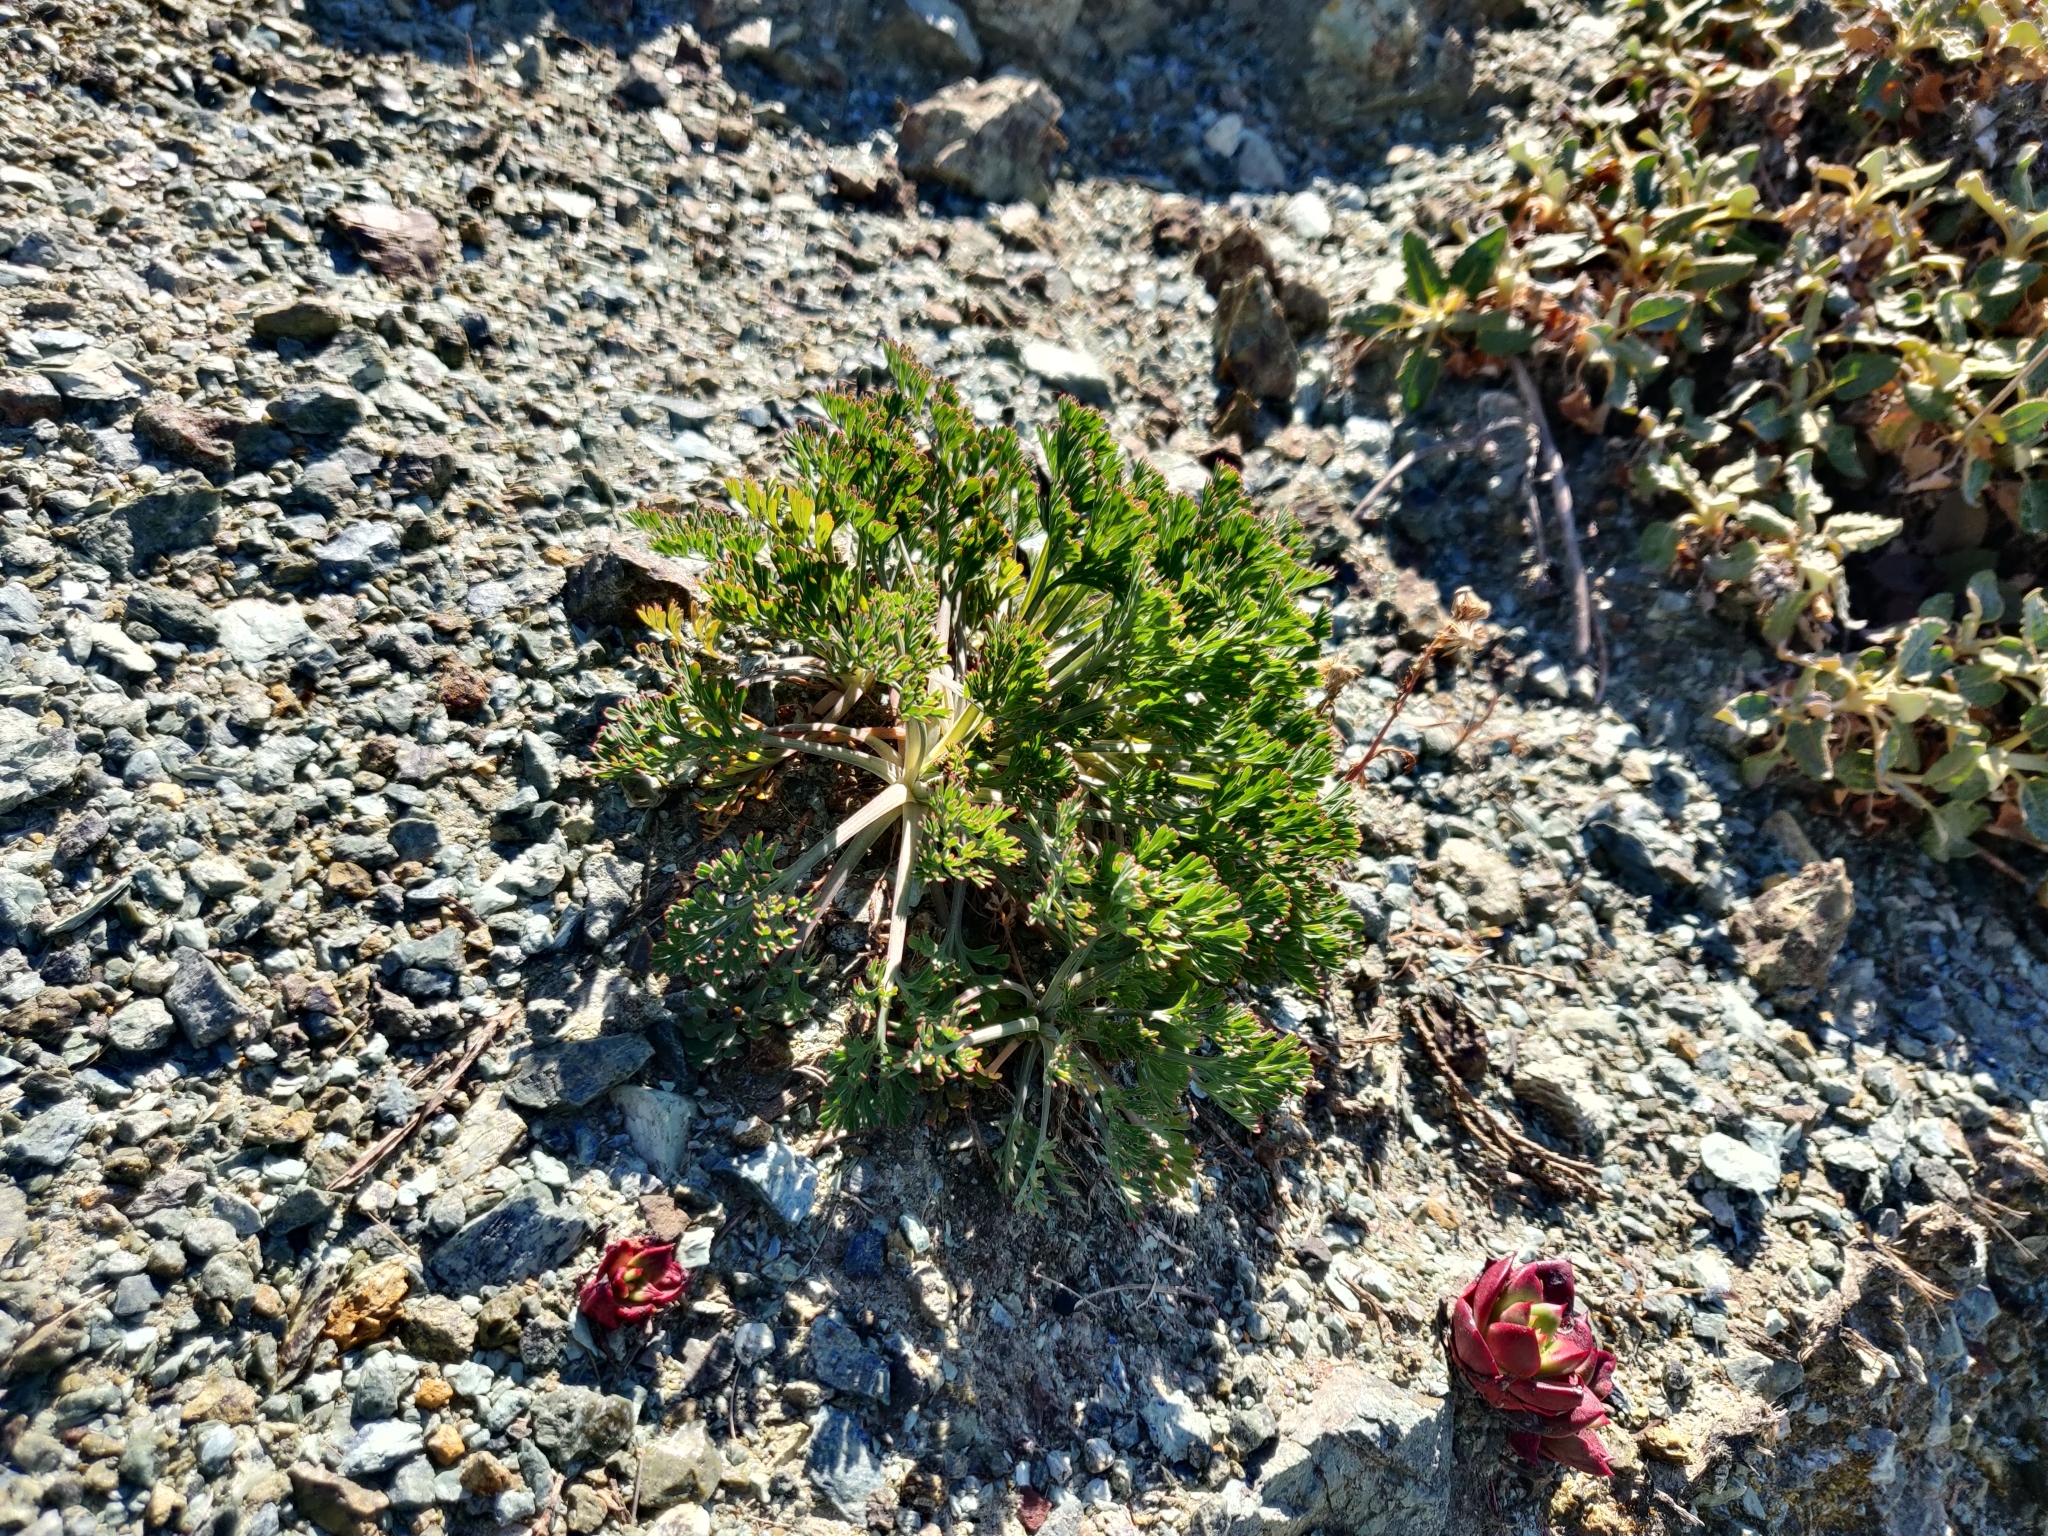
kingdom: Plantae
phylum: Tracheophyta
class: Magnoliopsida
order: Ranunculales
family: Papaveraceae
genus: Eschscholzia
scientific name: Eschscholzia californica
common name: California poppy
